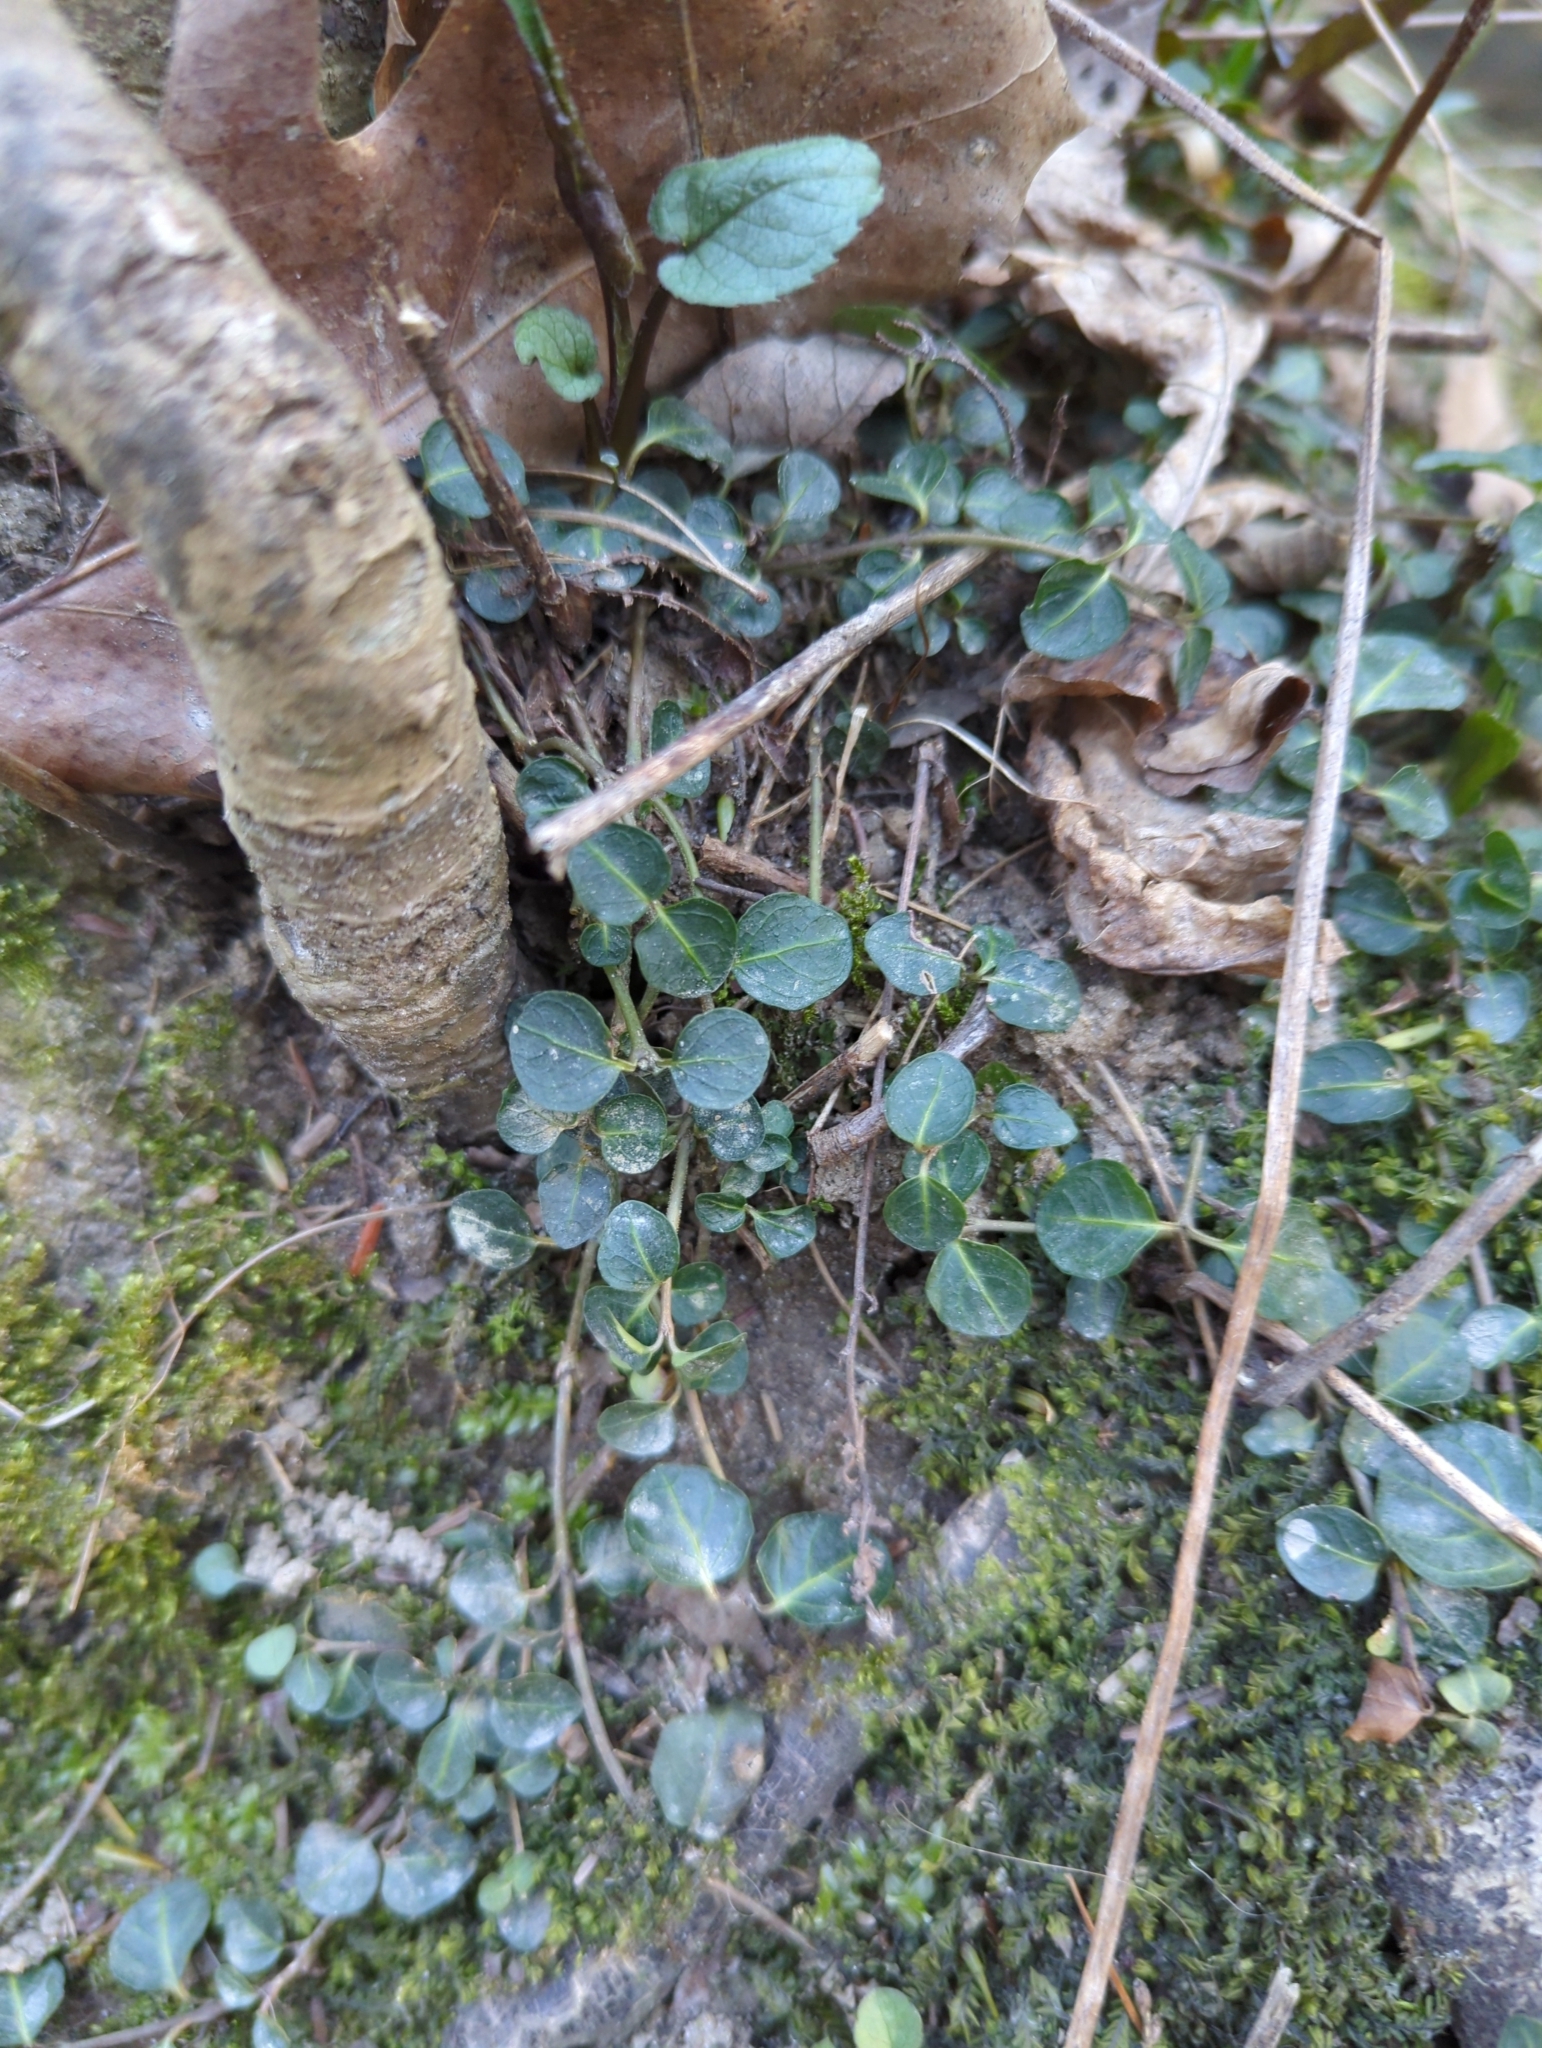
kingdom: Plantae
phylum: Tracheophyta
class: Magnoliopsida
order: Gentianales
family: Rubiaceae
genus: Mitchella
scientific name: Mitchella repens
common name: Partridge-berry
